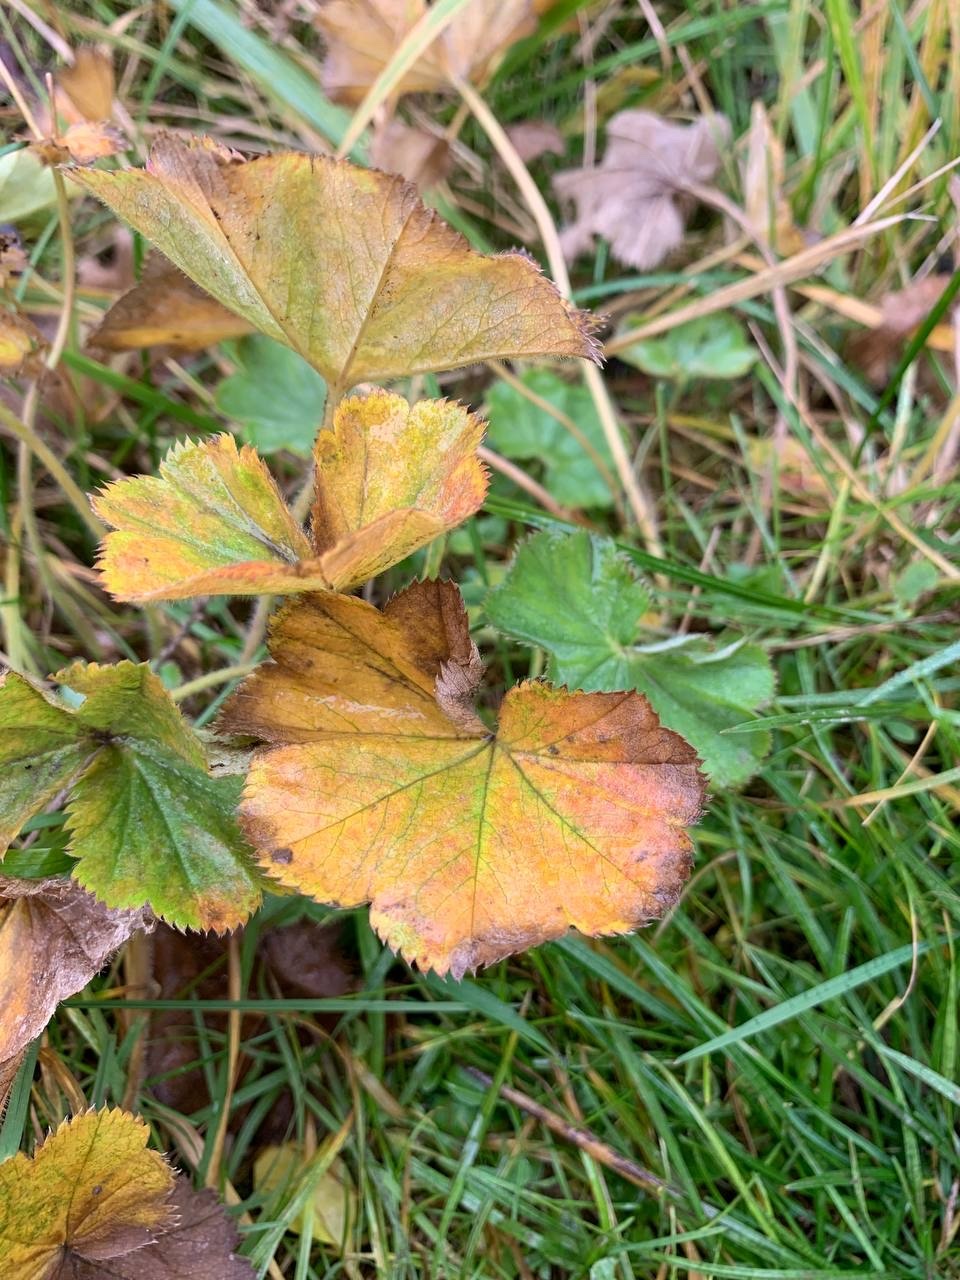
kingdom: Plantae
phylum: Tracheophyta
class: Magnoliopsida
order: Rosales
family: Rosaceae
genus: Alchemilla
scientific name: Alchemilla
